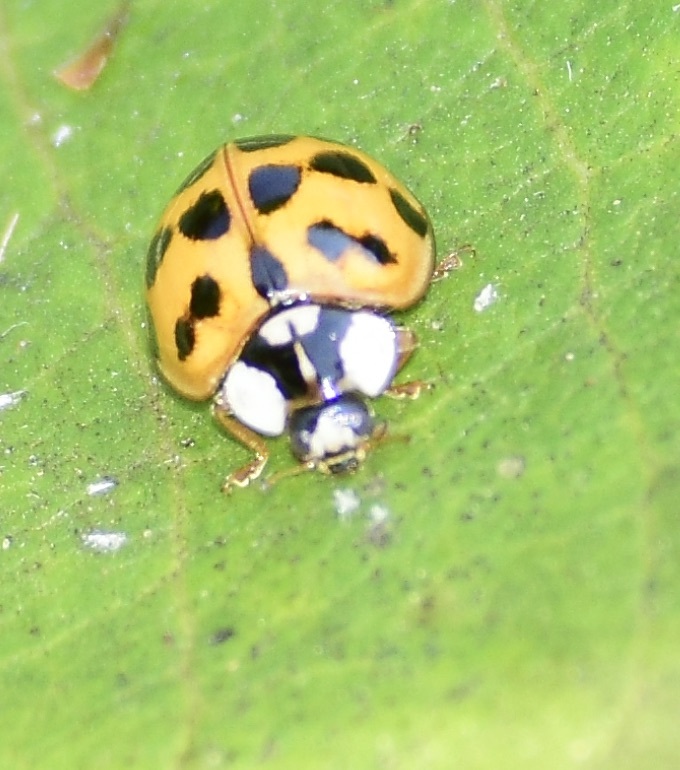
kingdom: Animalia
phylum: Arthropoda
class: Insecta
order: Coleoptera
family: Coccinellidae
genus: Harmonia
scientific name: Harmonia axyridis
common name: Harlequin ladybird
